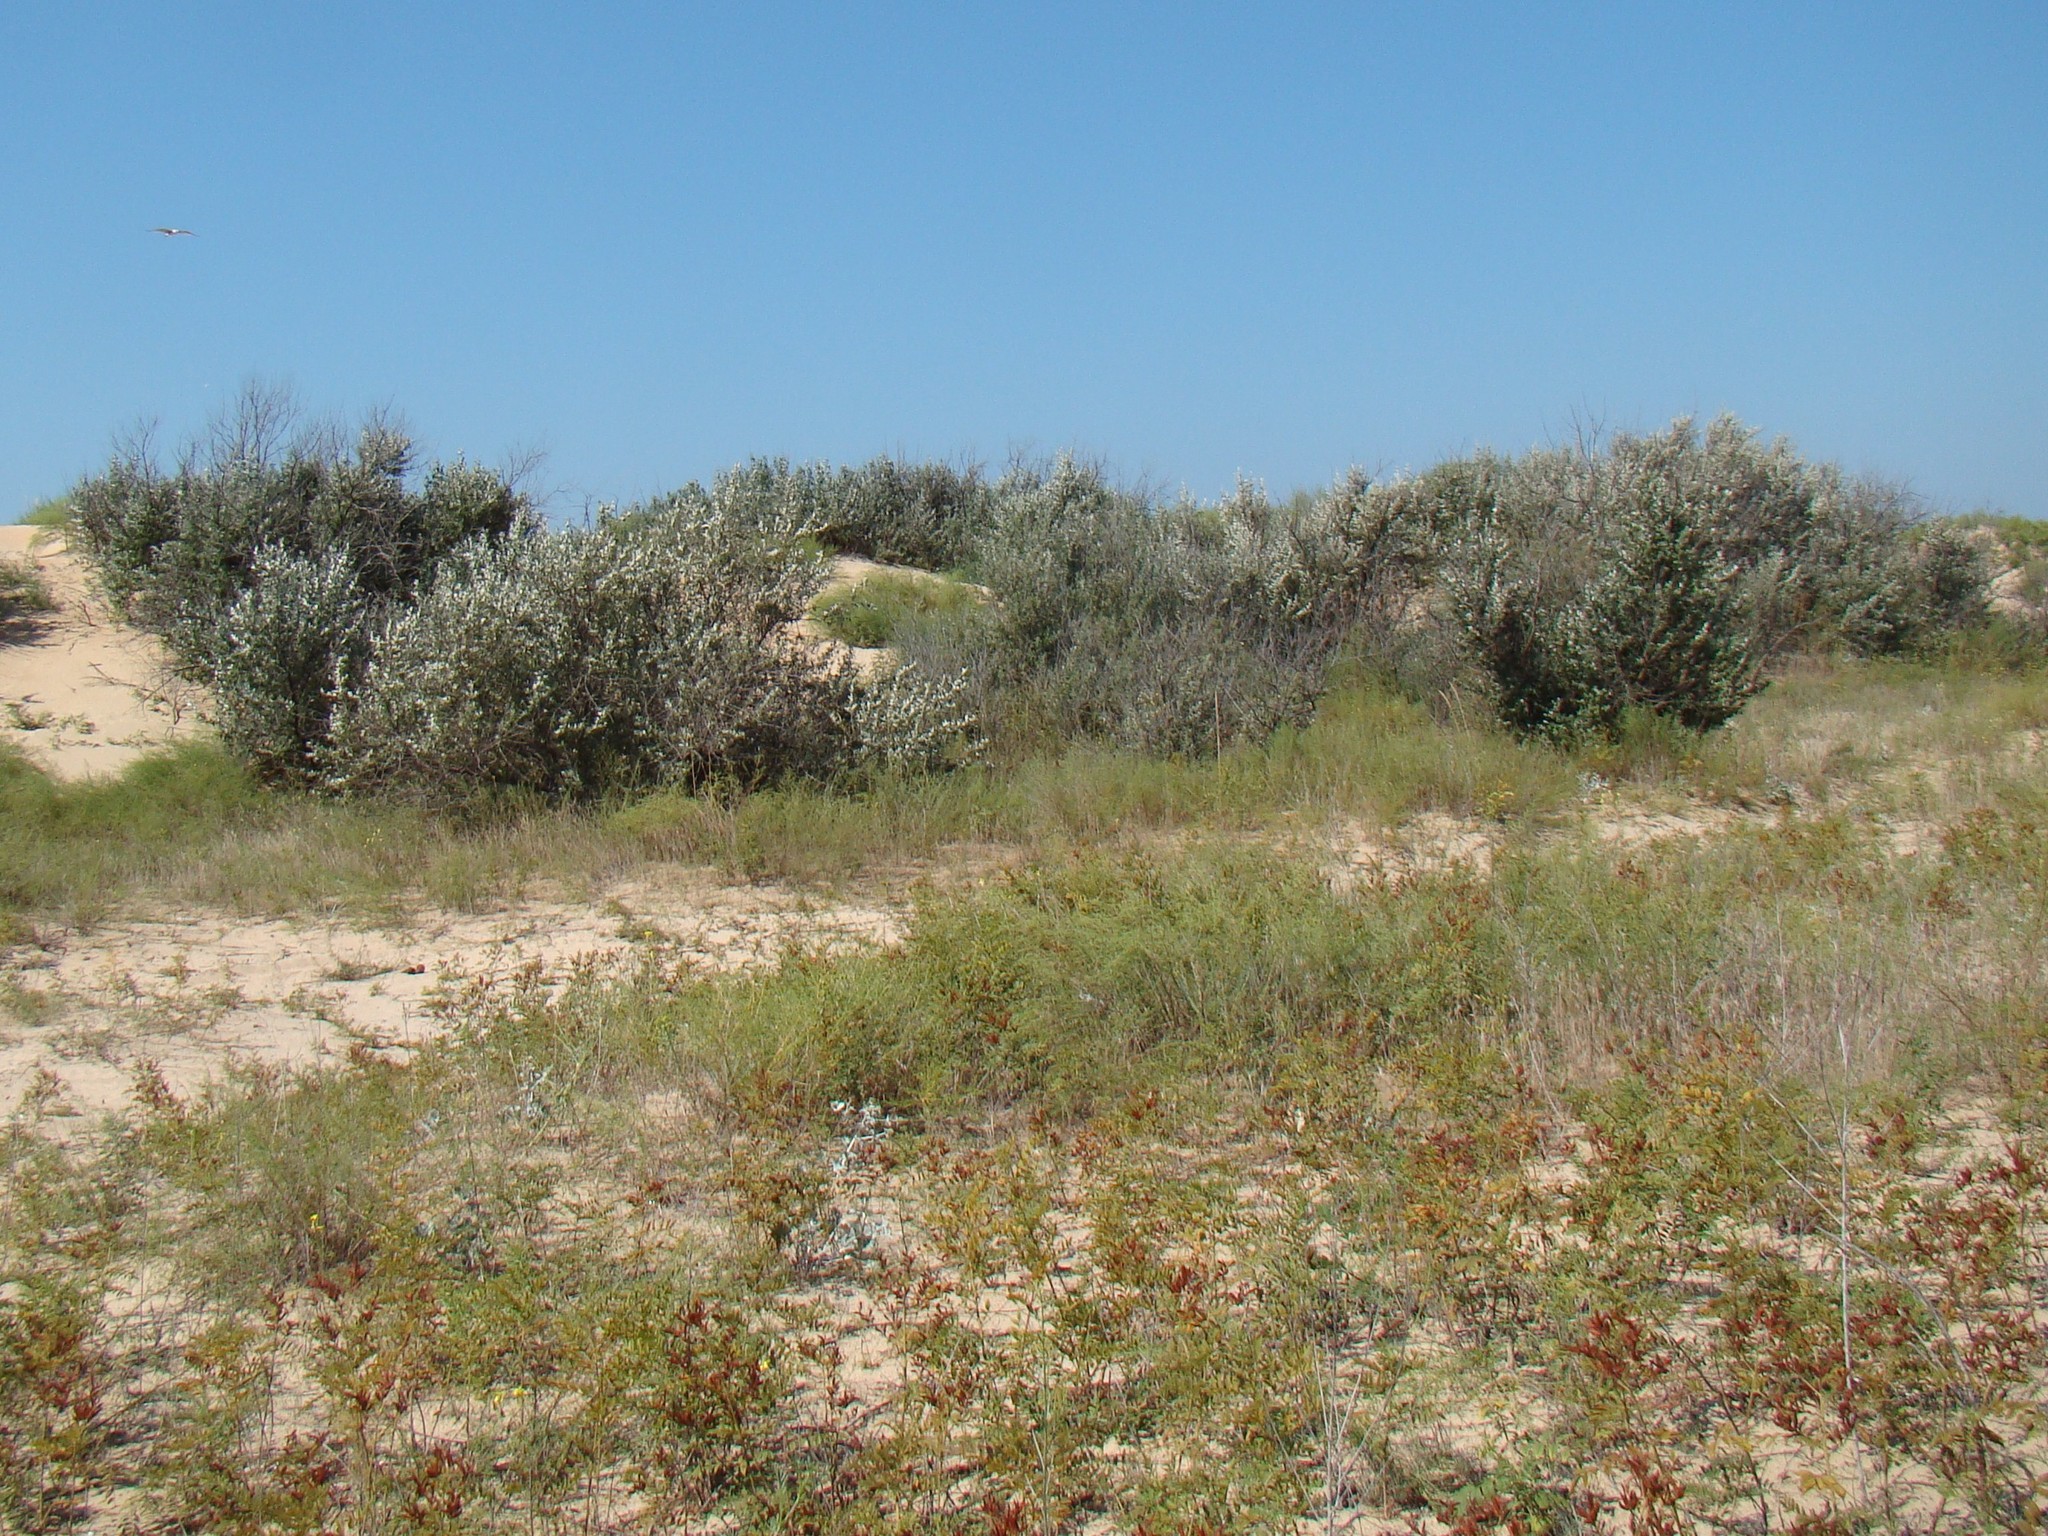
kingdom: Plantae
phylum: Tracheophyta
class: Magnoliopsida
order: Fabales
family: Fabaceae
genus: Glycyrrhiza
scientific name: Glycyrrhiza glabra
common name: Liquorice
